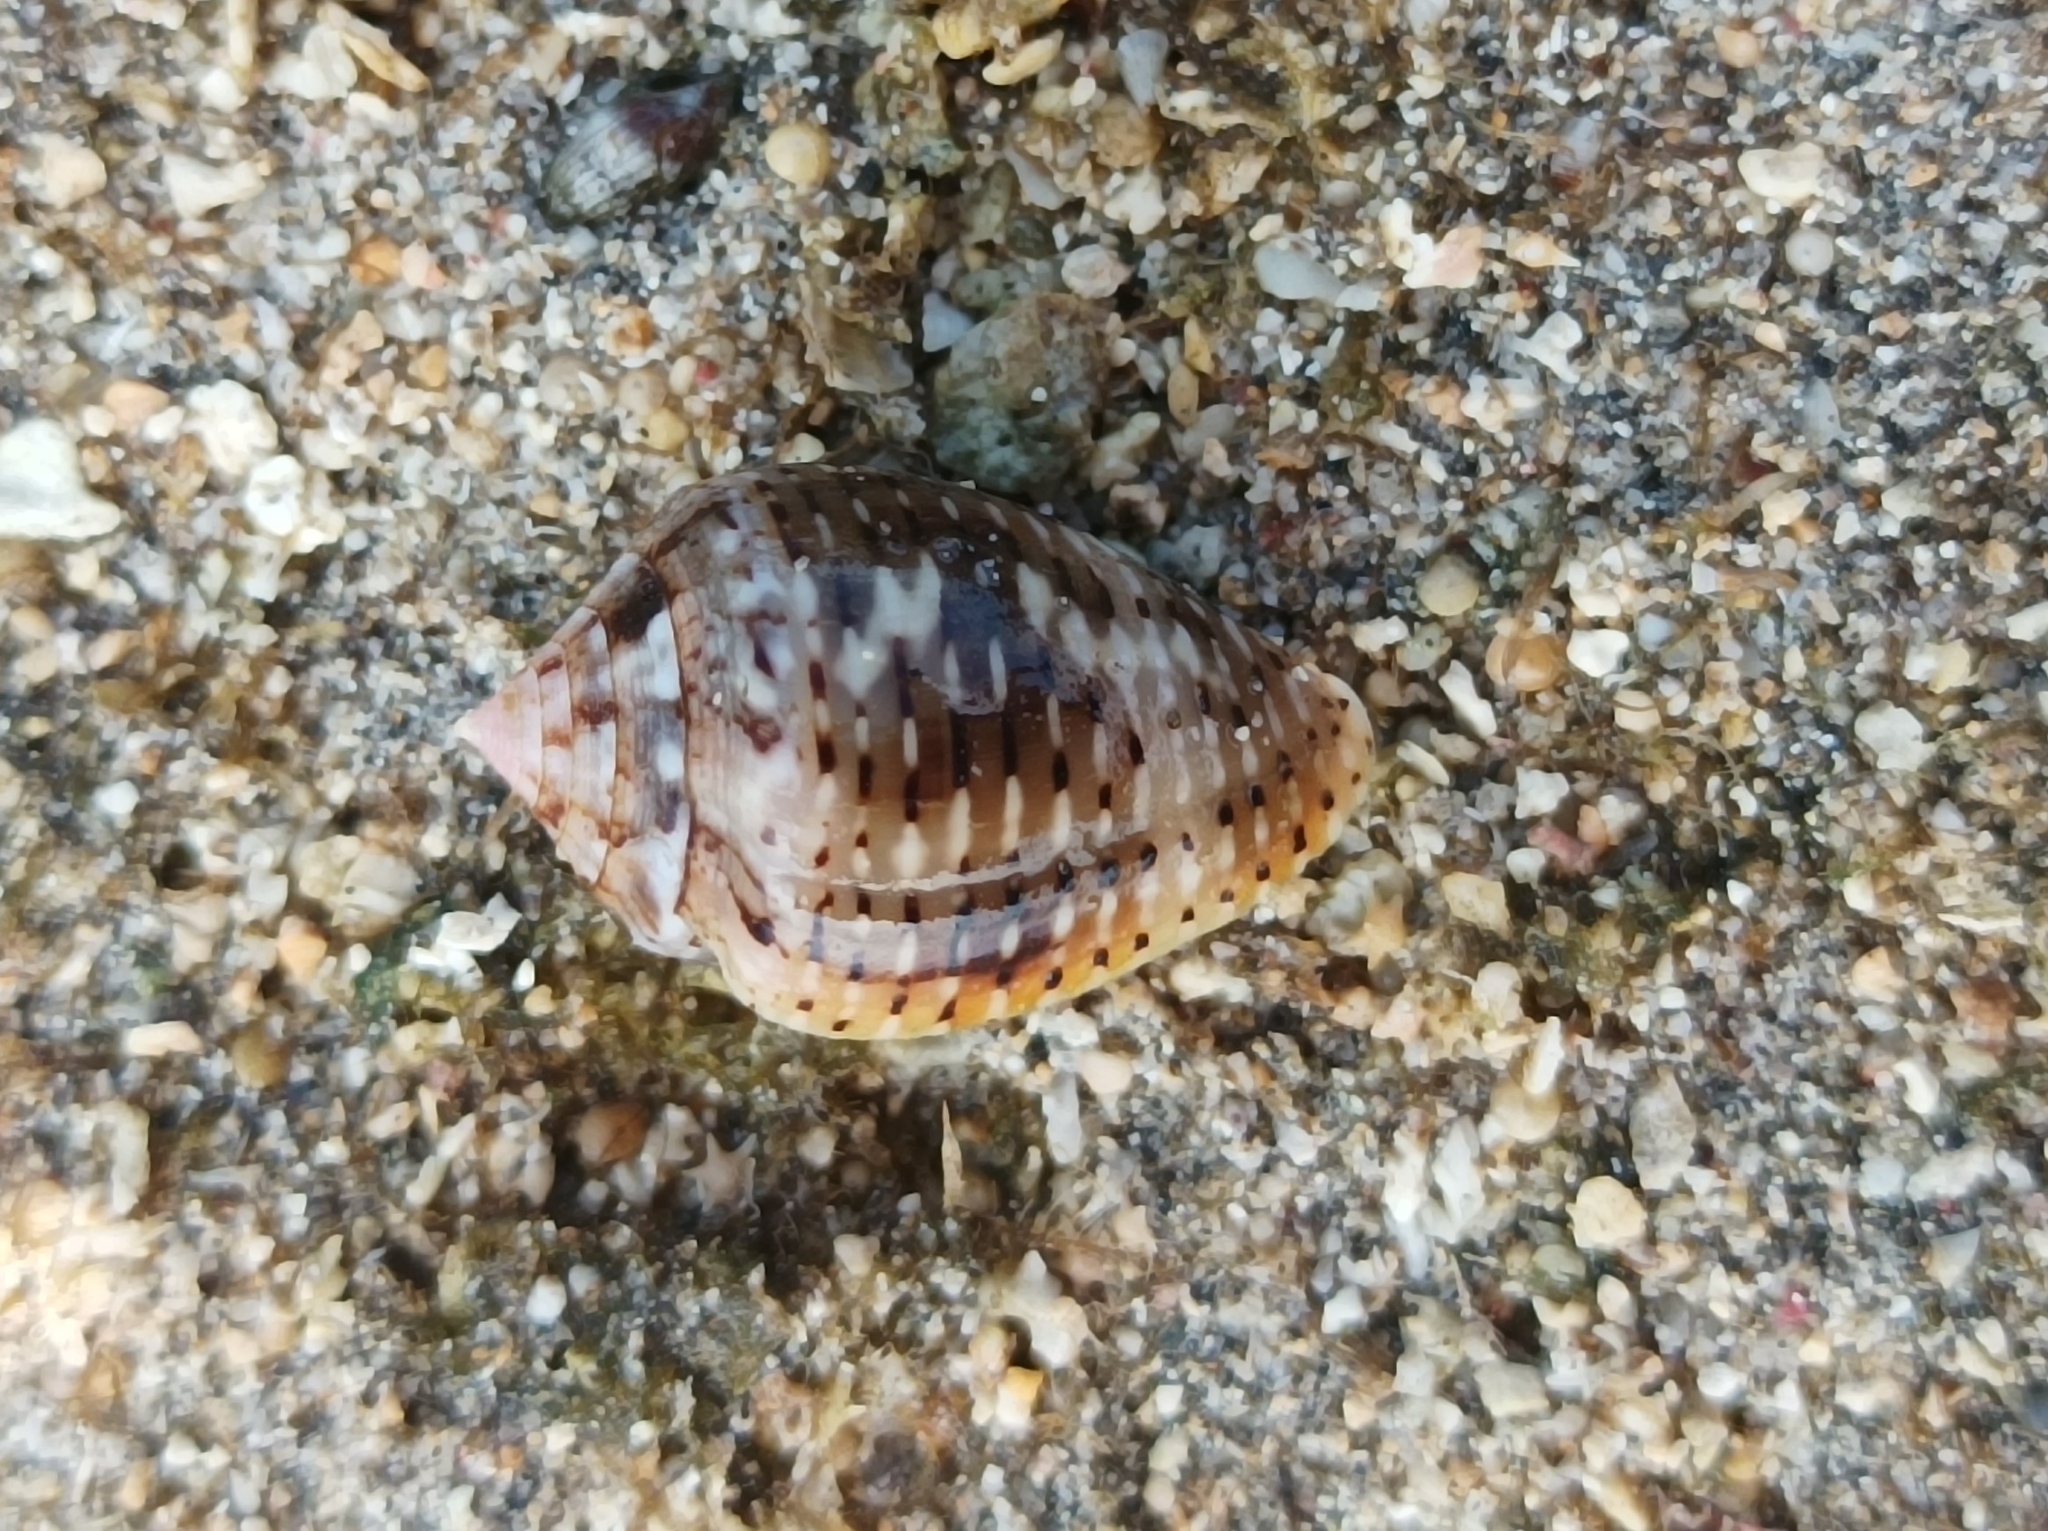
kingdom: Animalia
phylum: Mollusca
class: Gastropoda
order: Neogastropoda
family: Conidae
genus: Conus
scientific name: Conus coronatus
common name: Coronated cone
